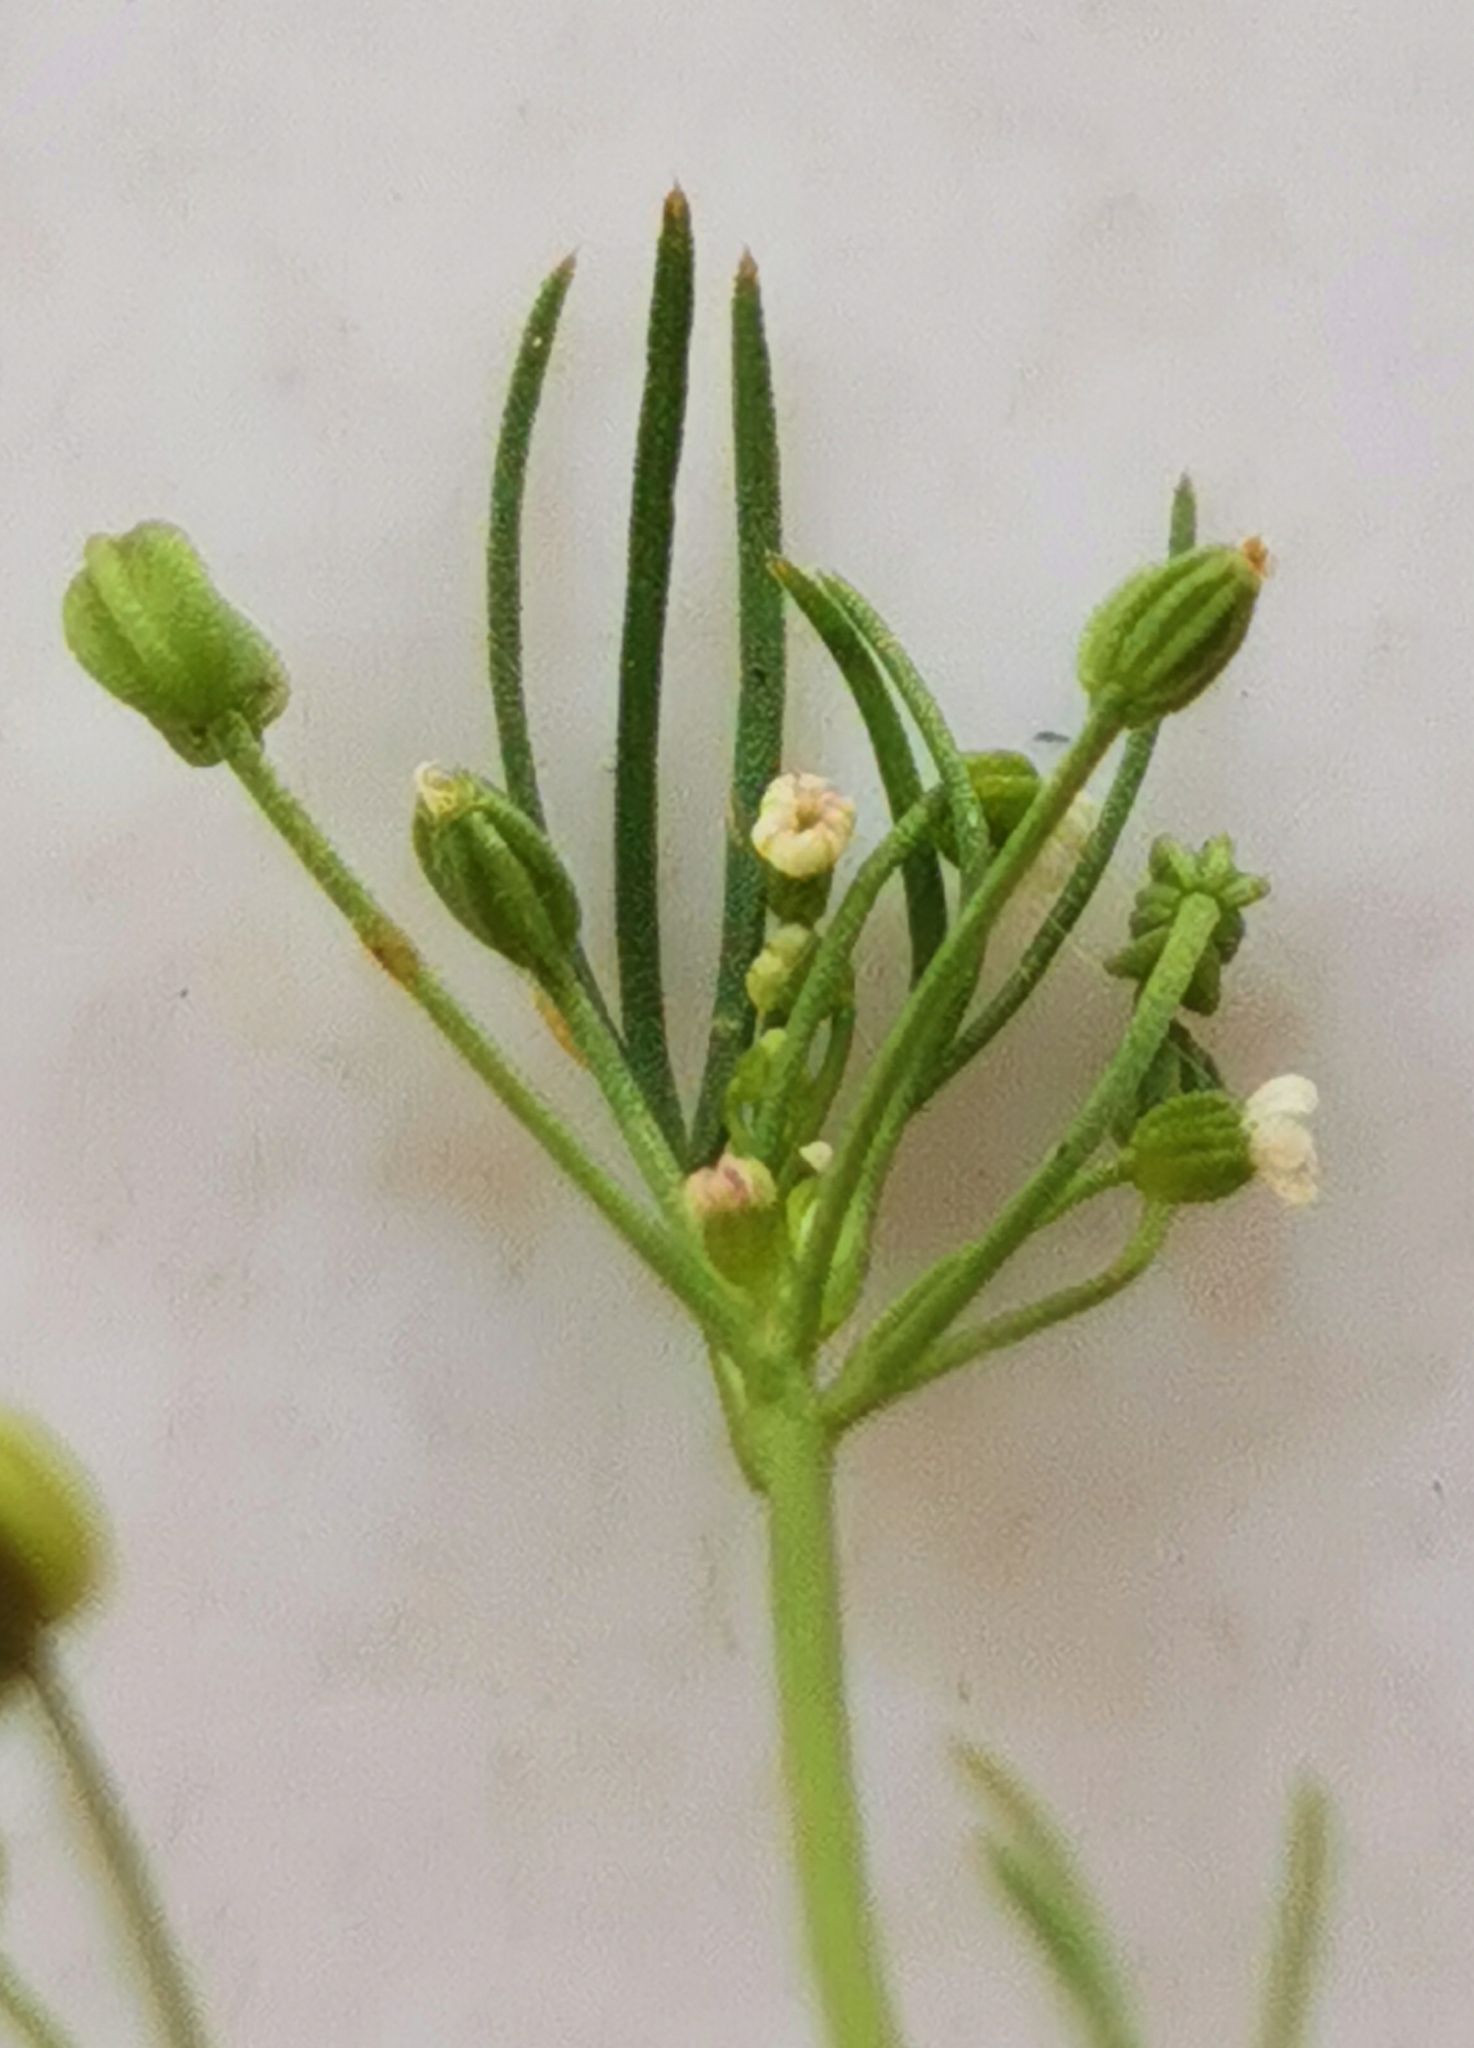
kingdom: Plantae
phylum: Tracheophyta
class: Magnoliopsida
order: Apiales
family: Apiaceae
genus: Cyclospermum
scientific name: Cyclospermum leptophyllum
